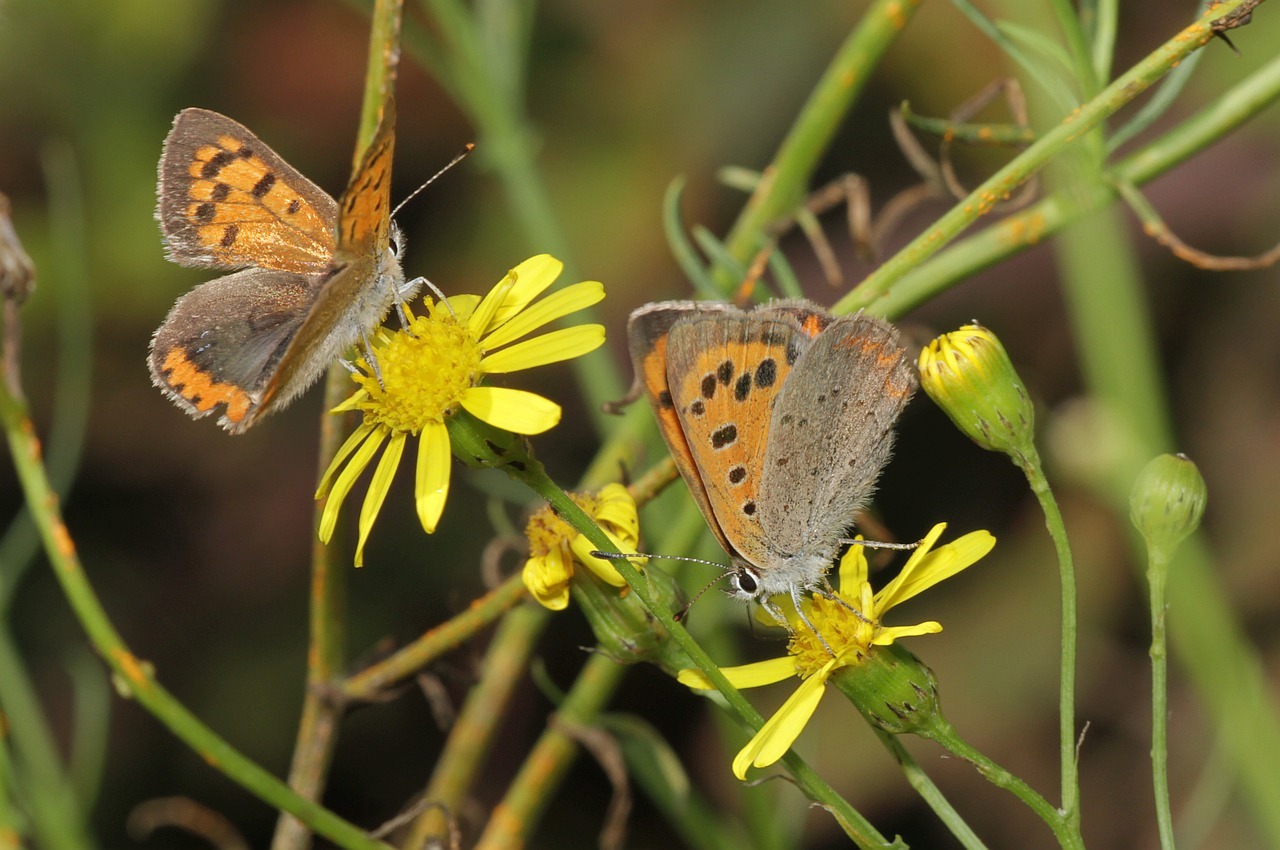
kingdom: Animalia
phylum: Arthropoda
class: Insecta
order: Lepidoptera
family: Lycaenidae
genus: Lycaena
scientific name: Lycaena phlaeas
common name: Small copper
